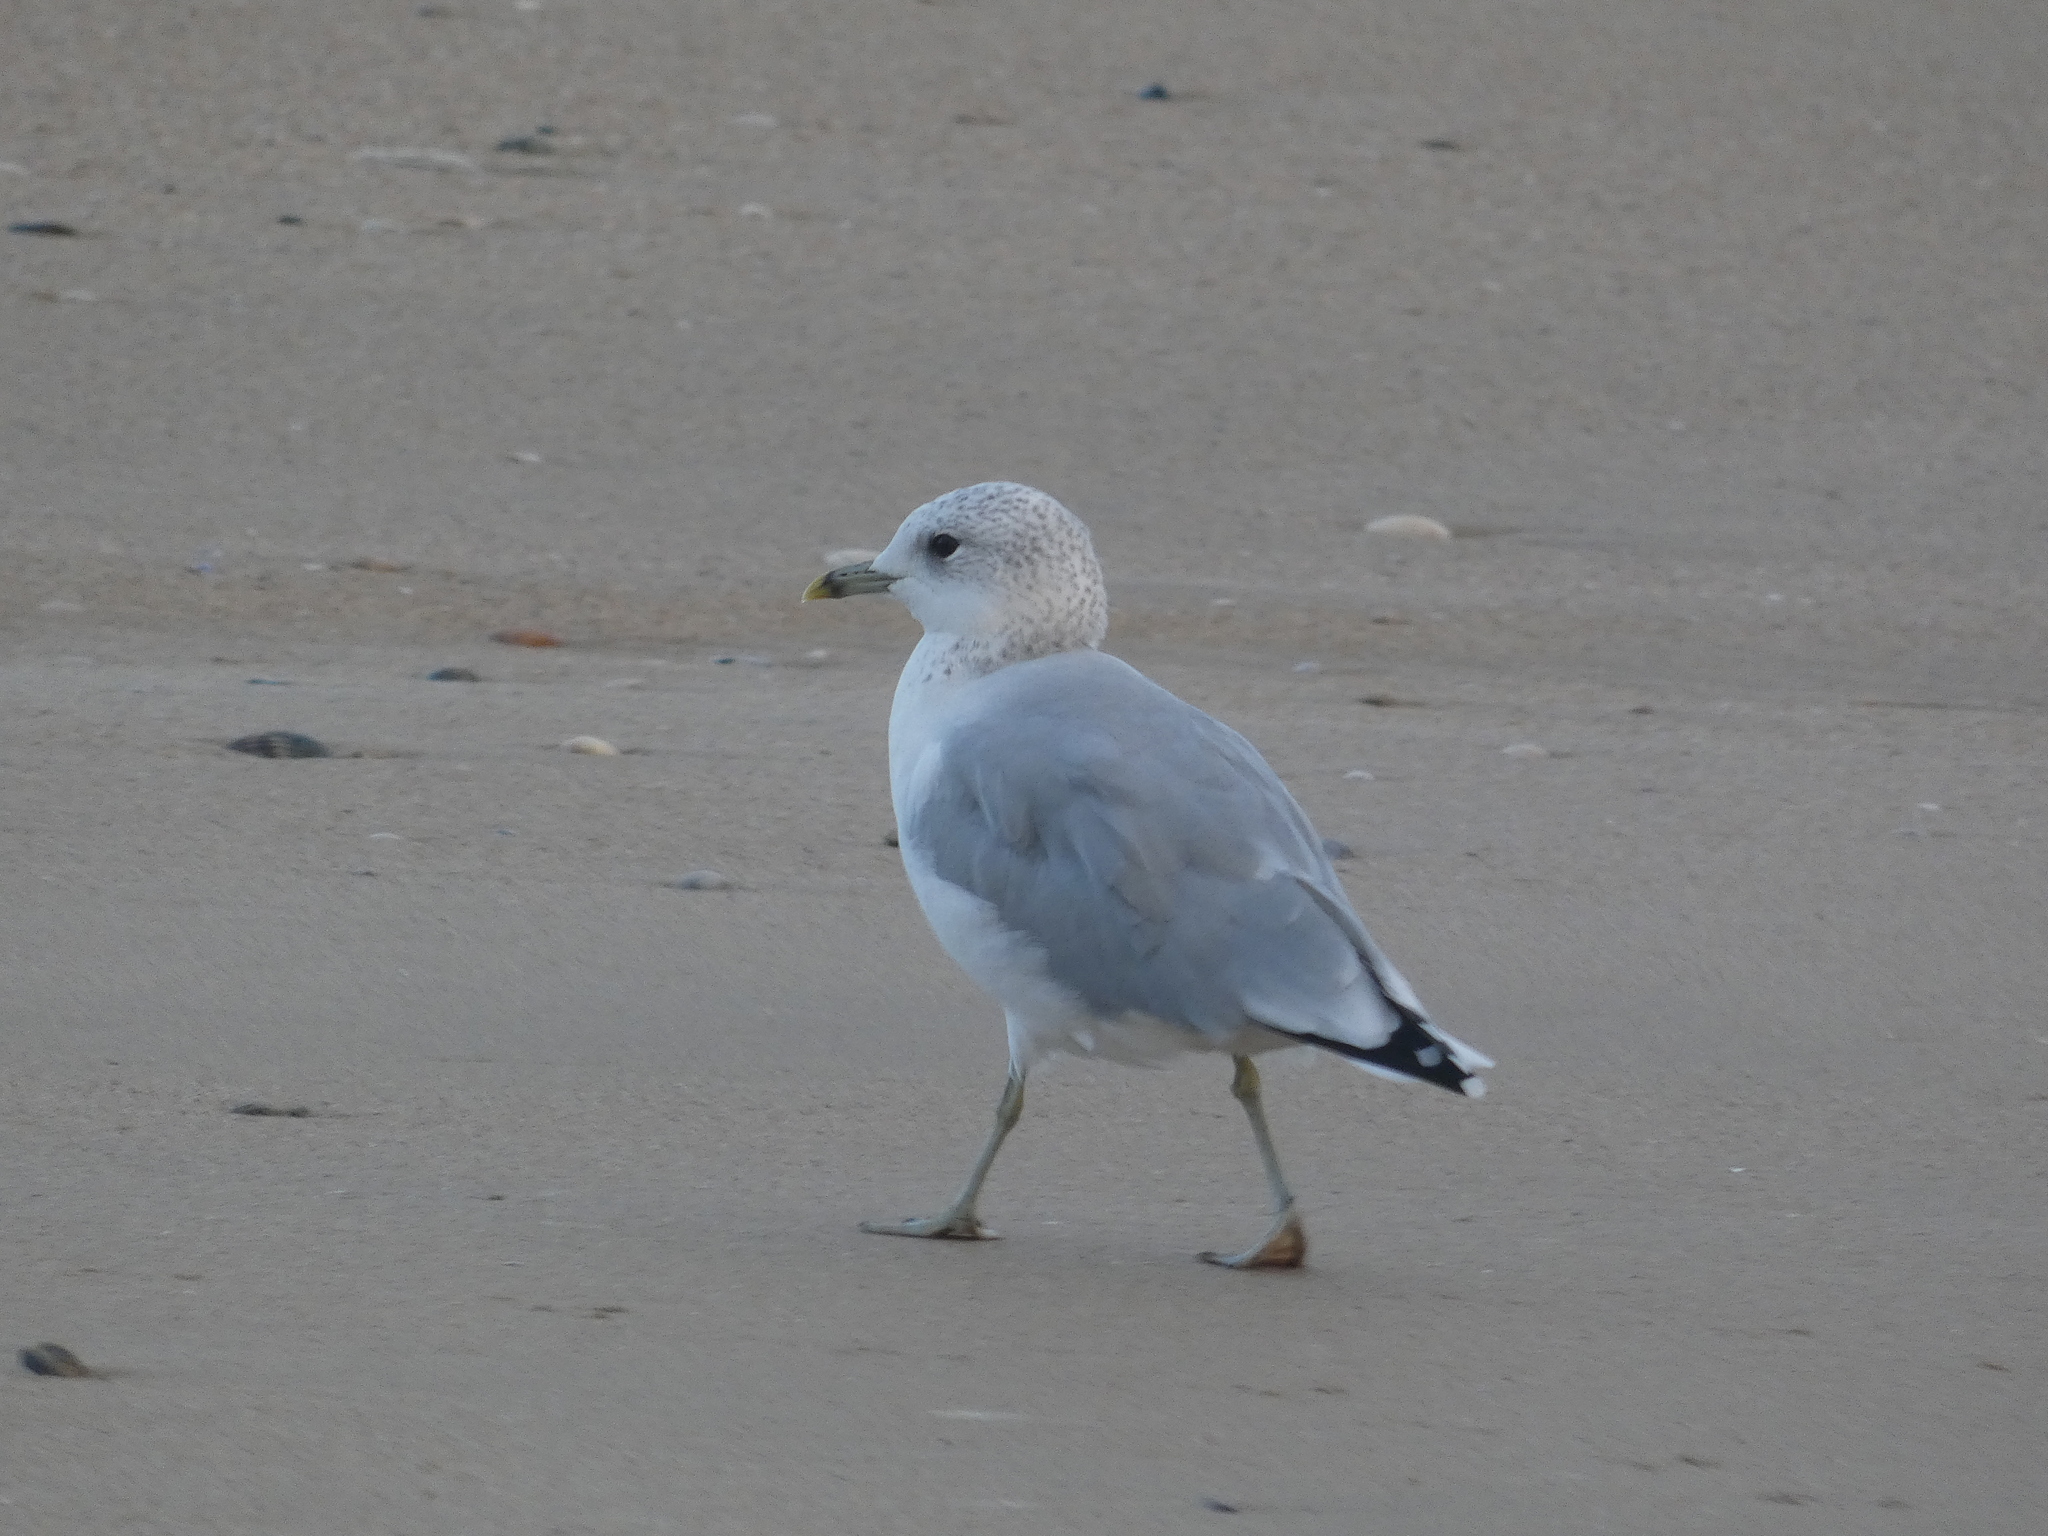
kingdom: Animalia
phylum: Chordata
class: Aves
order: Charadriiformes
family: Laridae
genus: Larus
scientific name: Larus canus
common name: Mew gull
